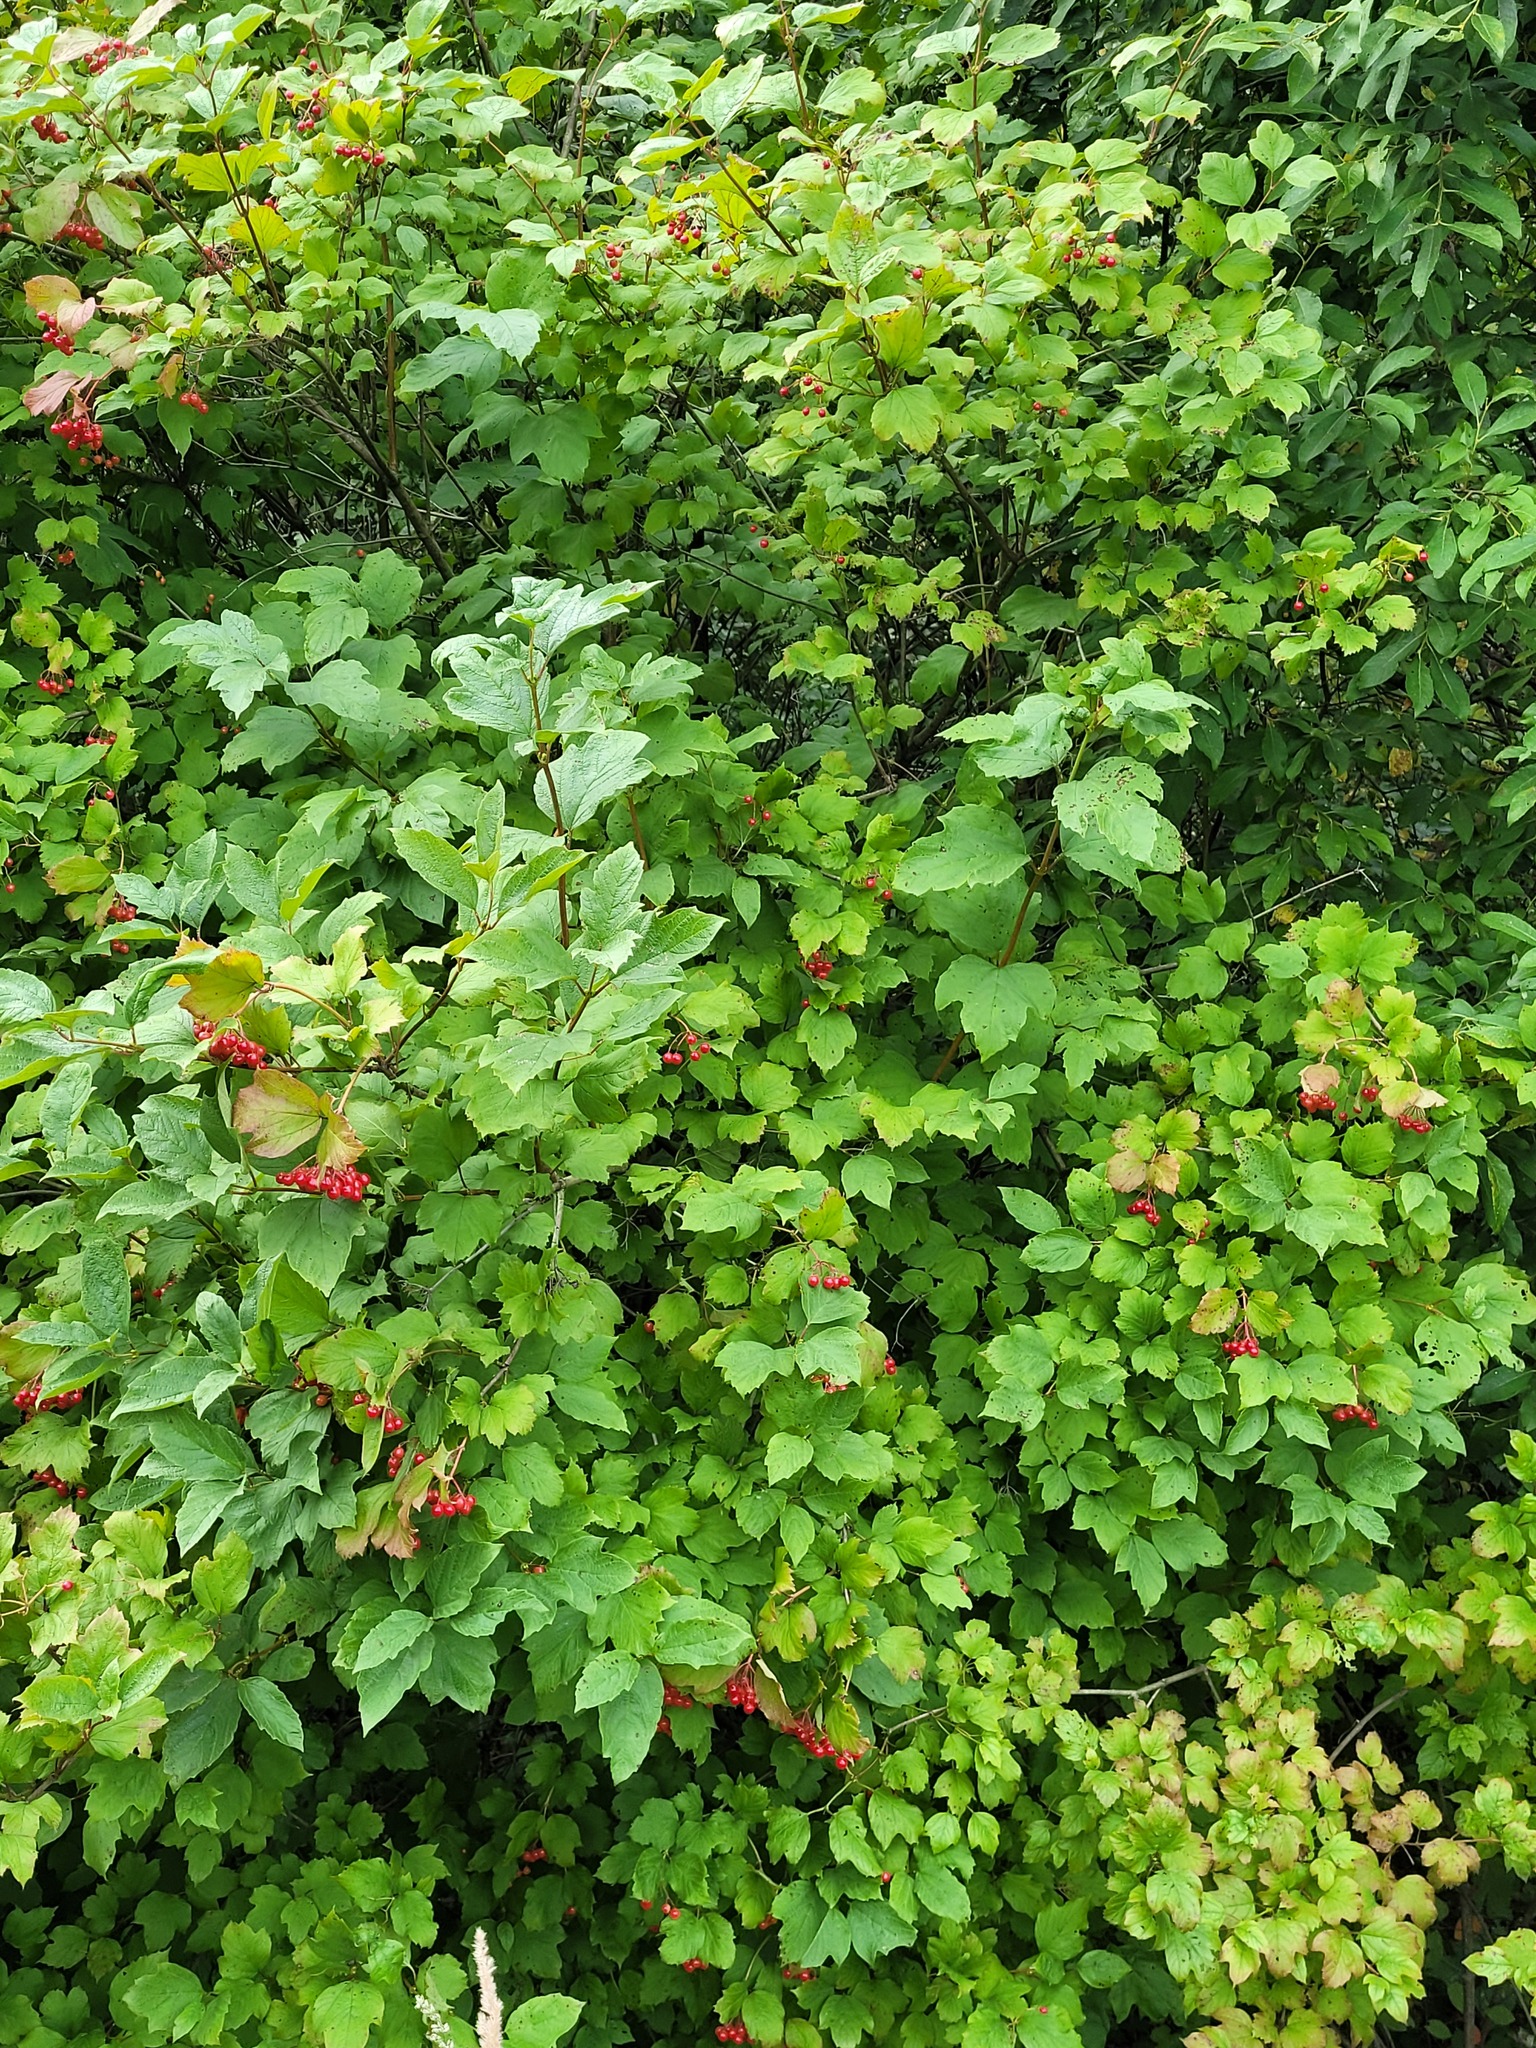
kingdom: Plantae
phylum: Tracheophyta
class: Magnoliopsida
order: Dipsacales
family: Viburnaceae
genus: Viburnum
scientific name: Viburnum opulus
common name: Guelder-rose
